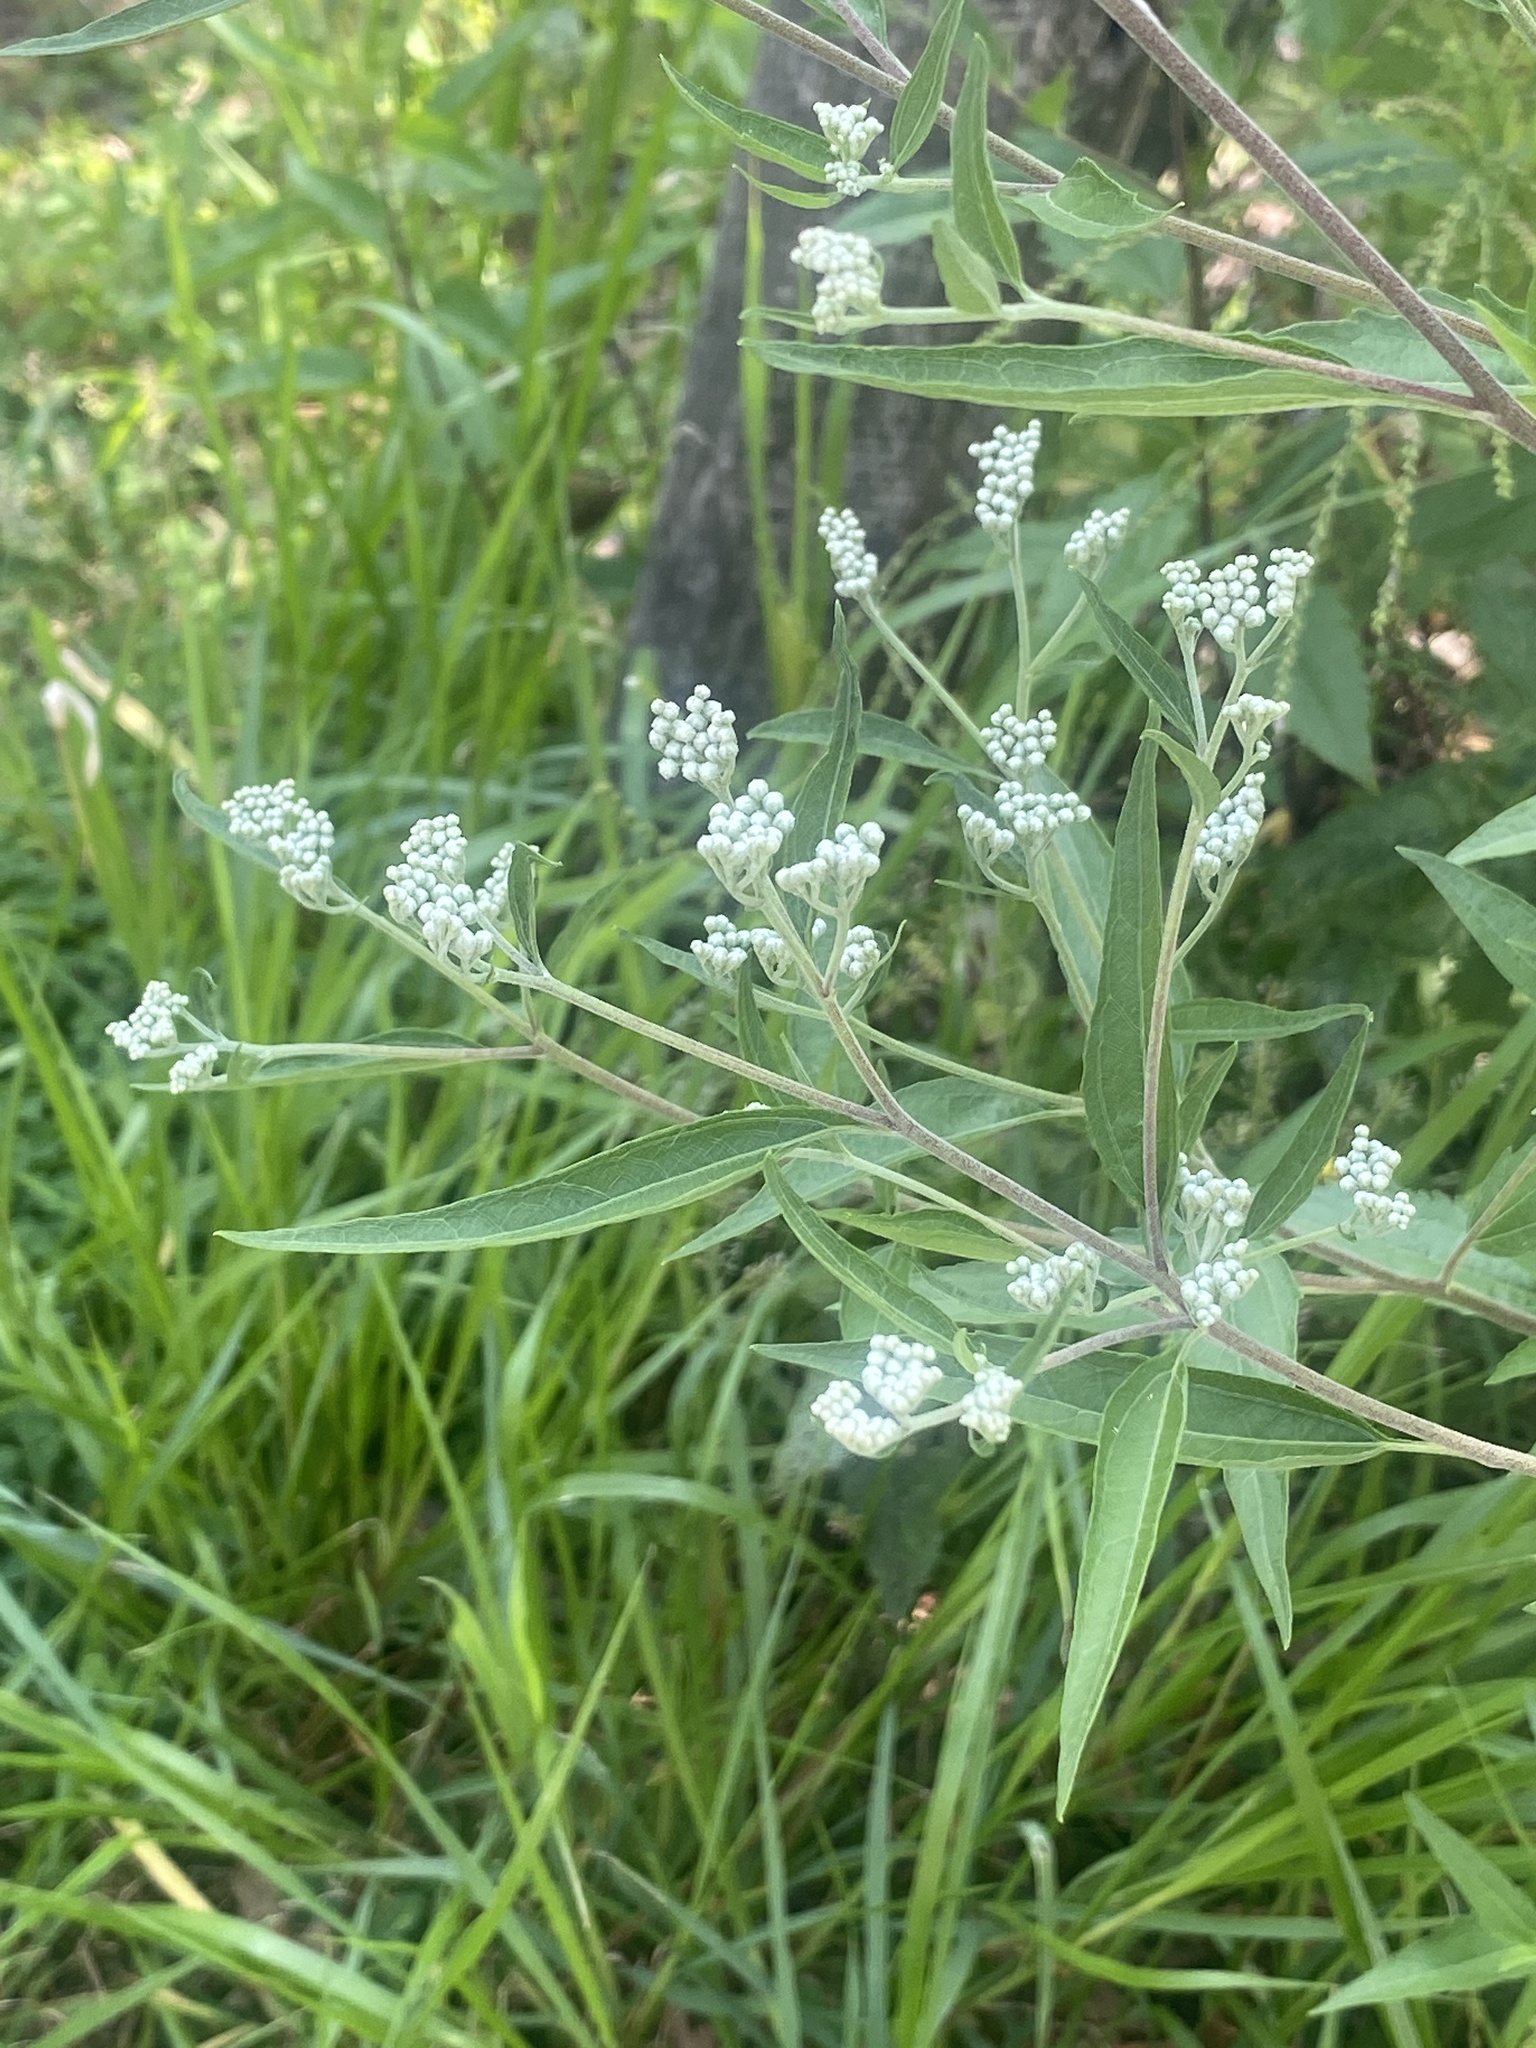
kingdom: Plantae
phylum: Tracheophyta
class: Magnoliopsida
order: Asterales
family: Asteraceae
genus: Eupatorium
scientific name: Eupatorium serotinum
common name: Late boneset
